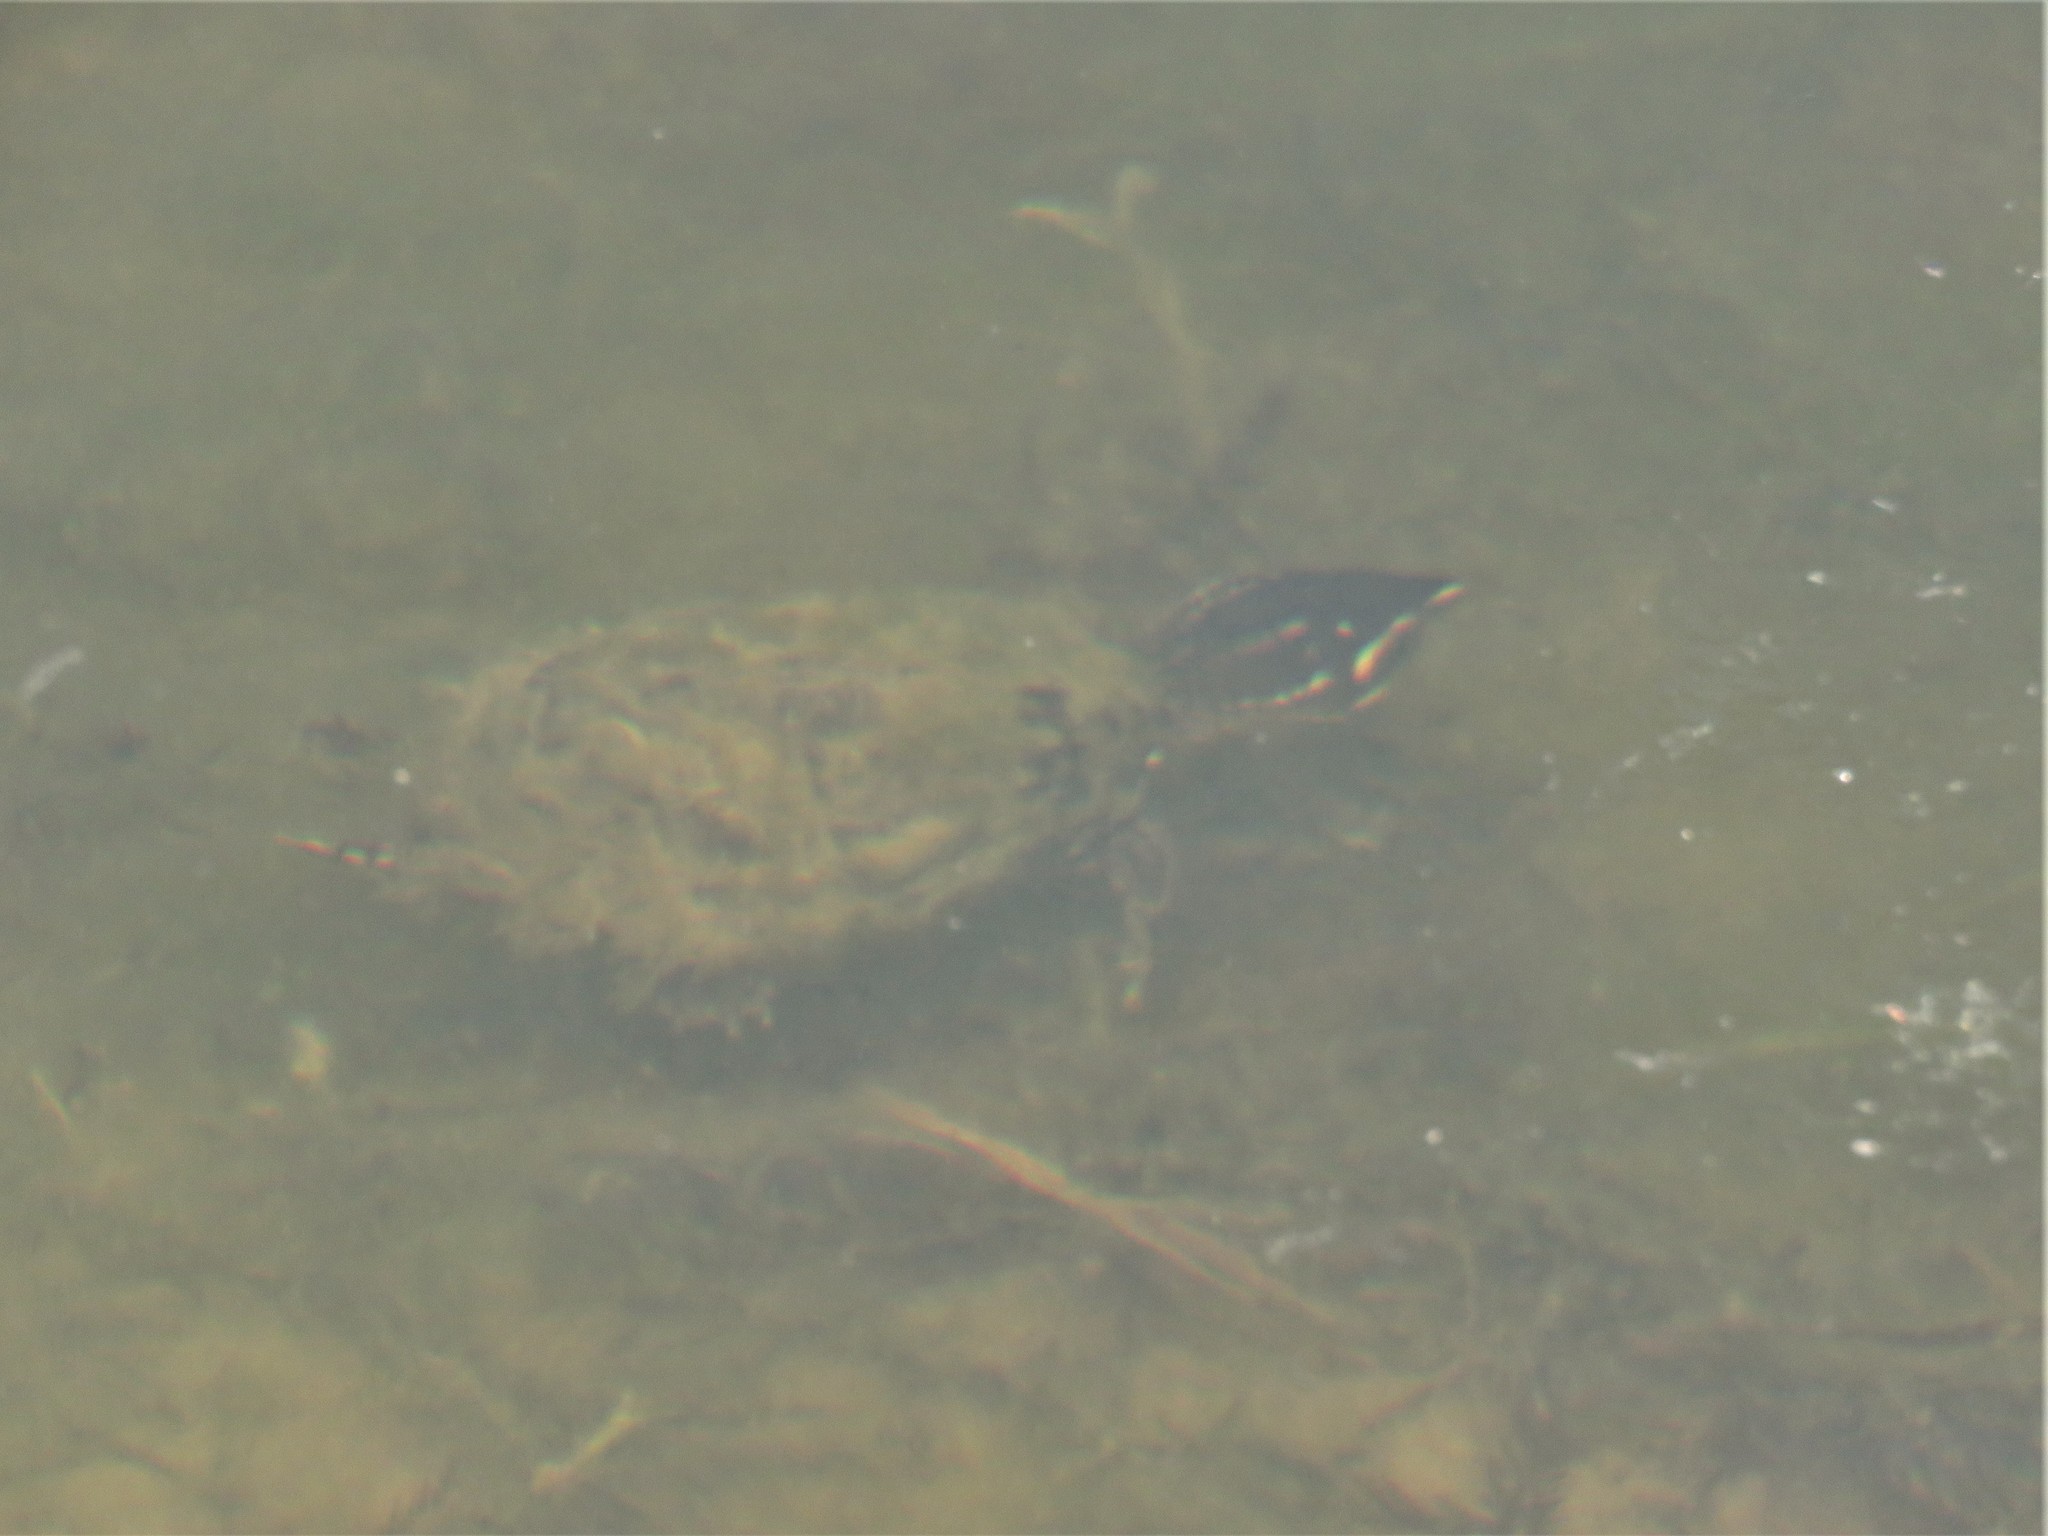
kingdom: Animalia
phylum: Chordata
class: Testudines
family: Kinosternidae
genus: Sternotherus
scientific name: Sternotherus odoratus
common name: Common musk turtle
